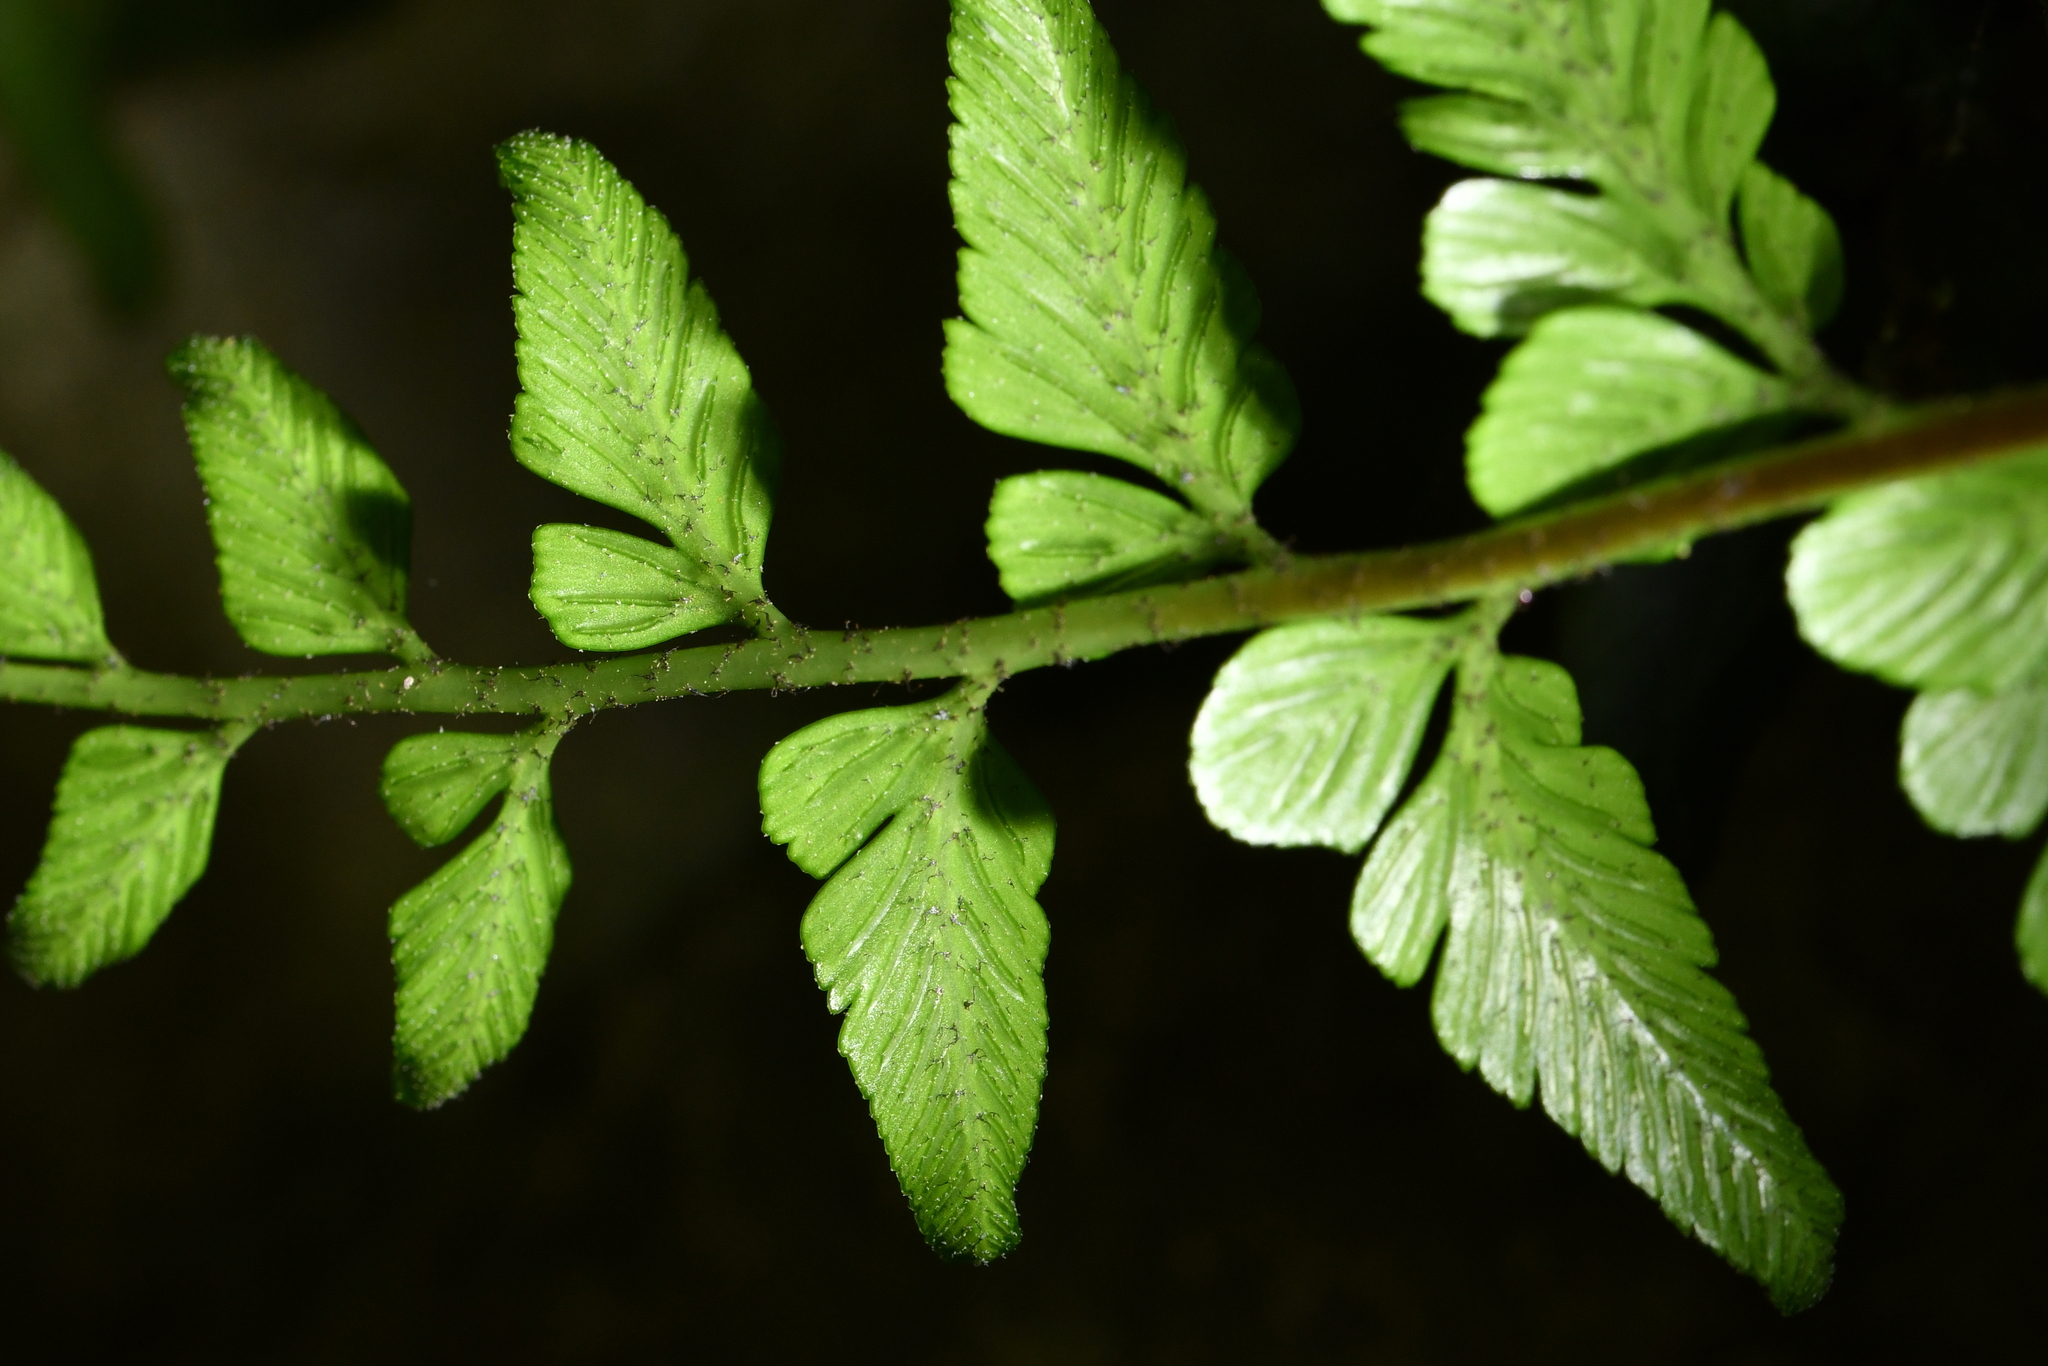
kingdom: Plantae
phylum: Tracheophyta
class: Polypodiopsida
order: Polypodiales
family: Aspleniaceae
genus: Asplenium
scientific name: Asplenium lyallii
